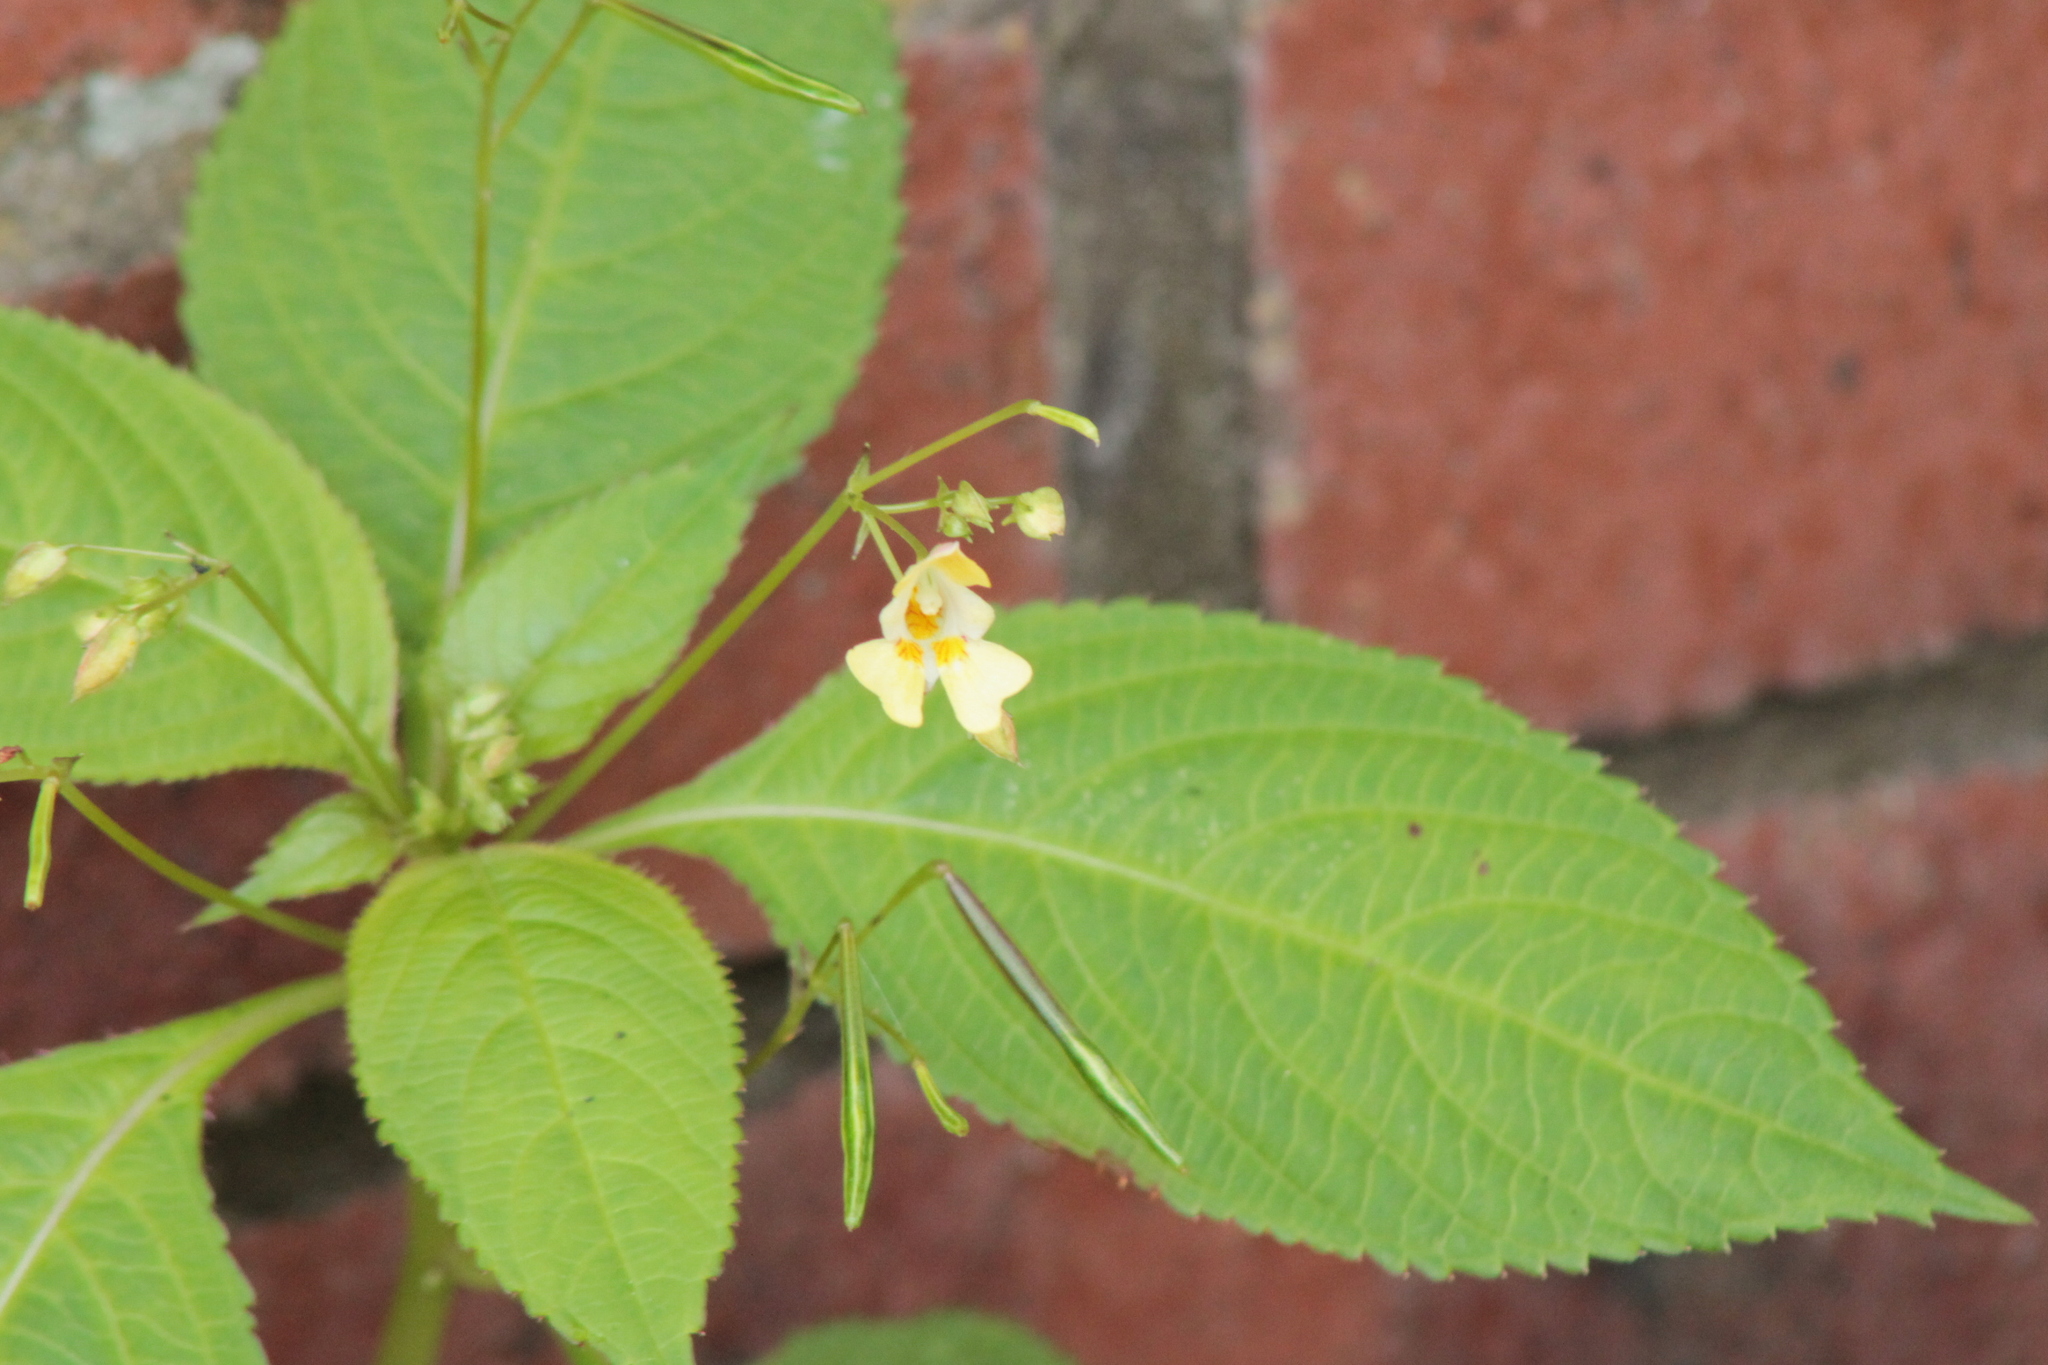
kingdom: Plantae
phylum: Tracheophyta
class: Magnoliopsida
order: Ericales
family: Balsaminaceae
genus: Impatiens
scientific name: Impatiens parviflora
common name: Small balsam
